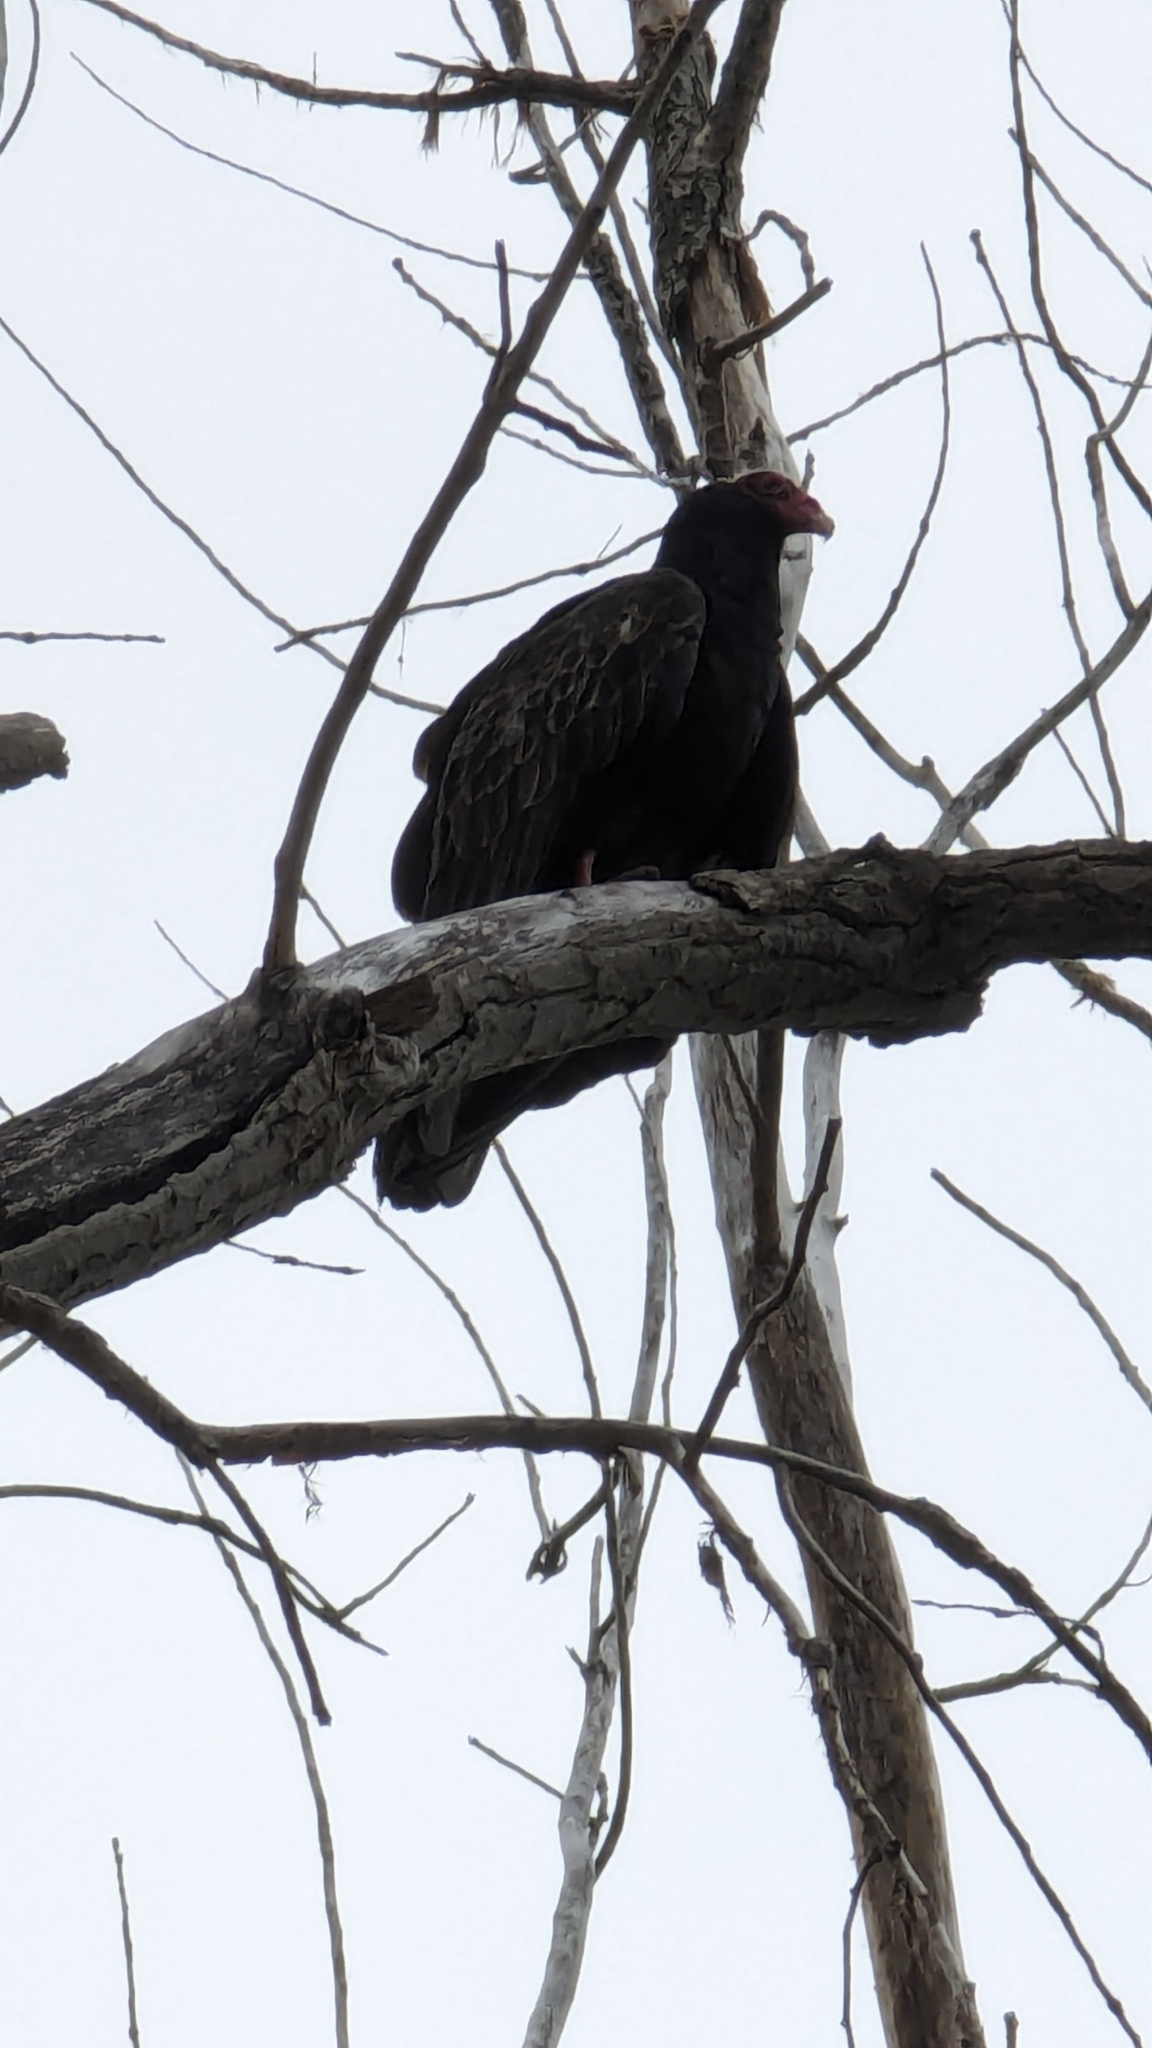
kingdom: Animalia
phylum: Chordata
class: Aves
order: Accipitriformes
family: Cathartidae
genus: Cathartes
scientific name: Cathartes aura
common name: Turkey vulture
